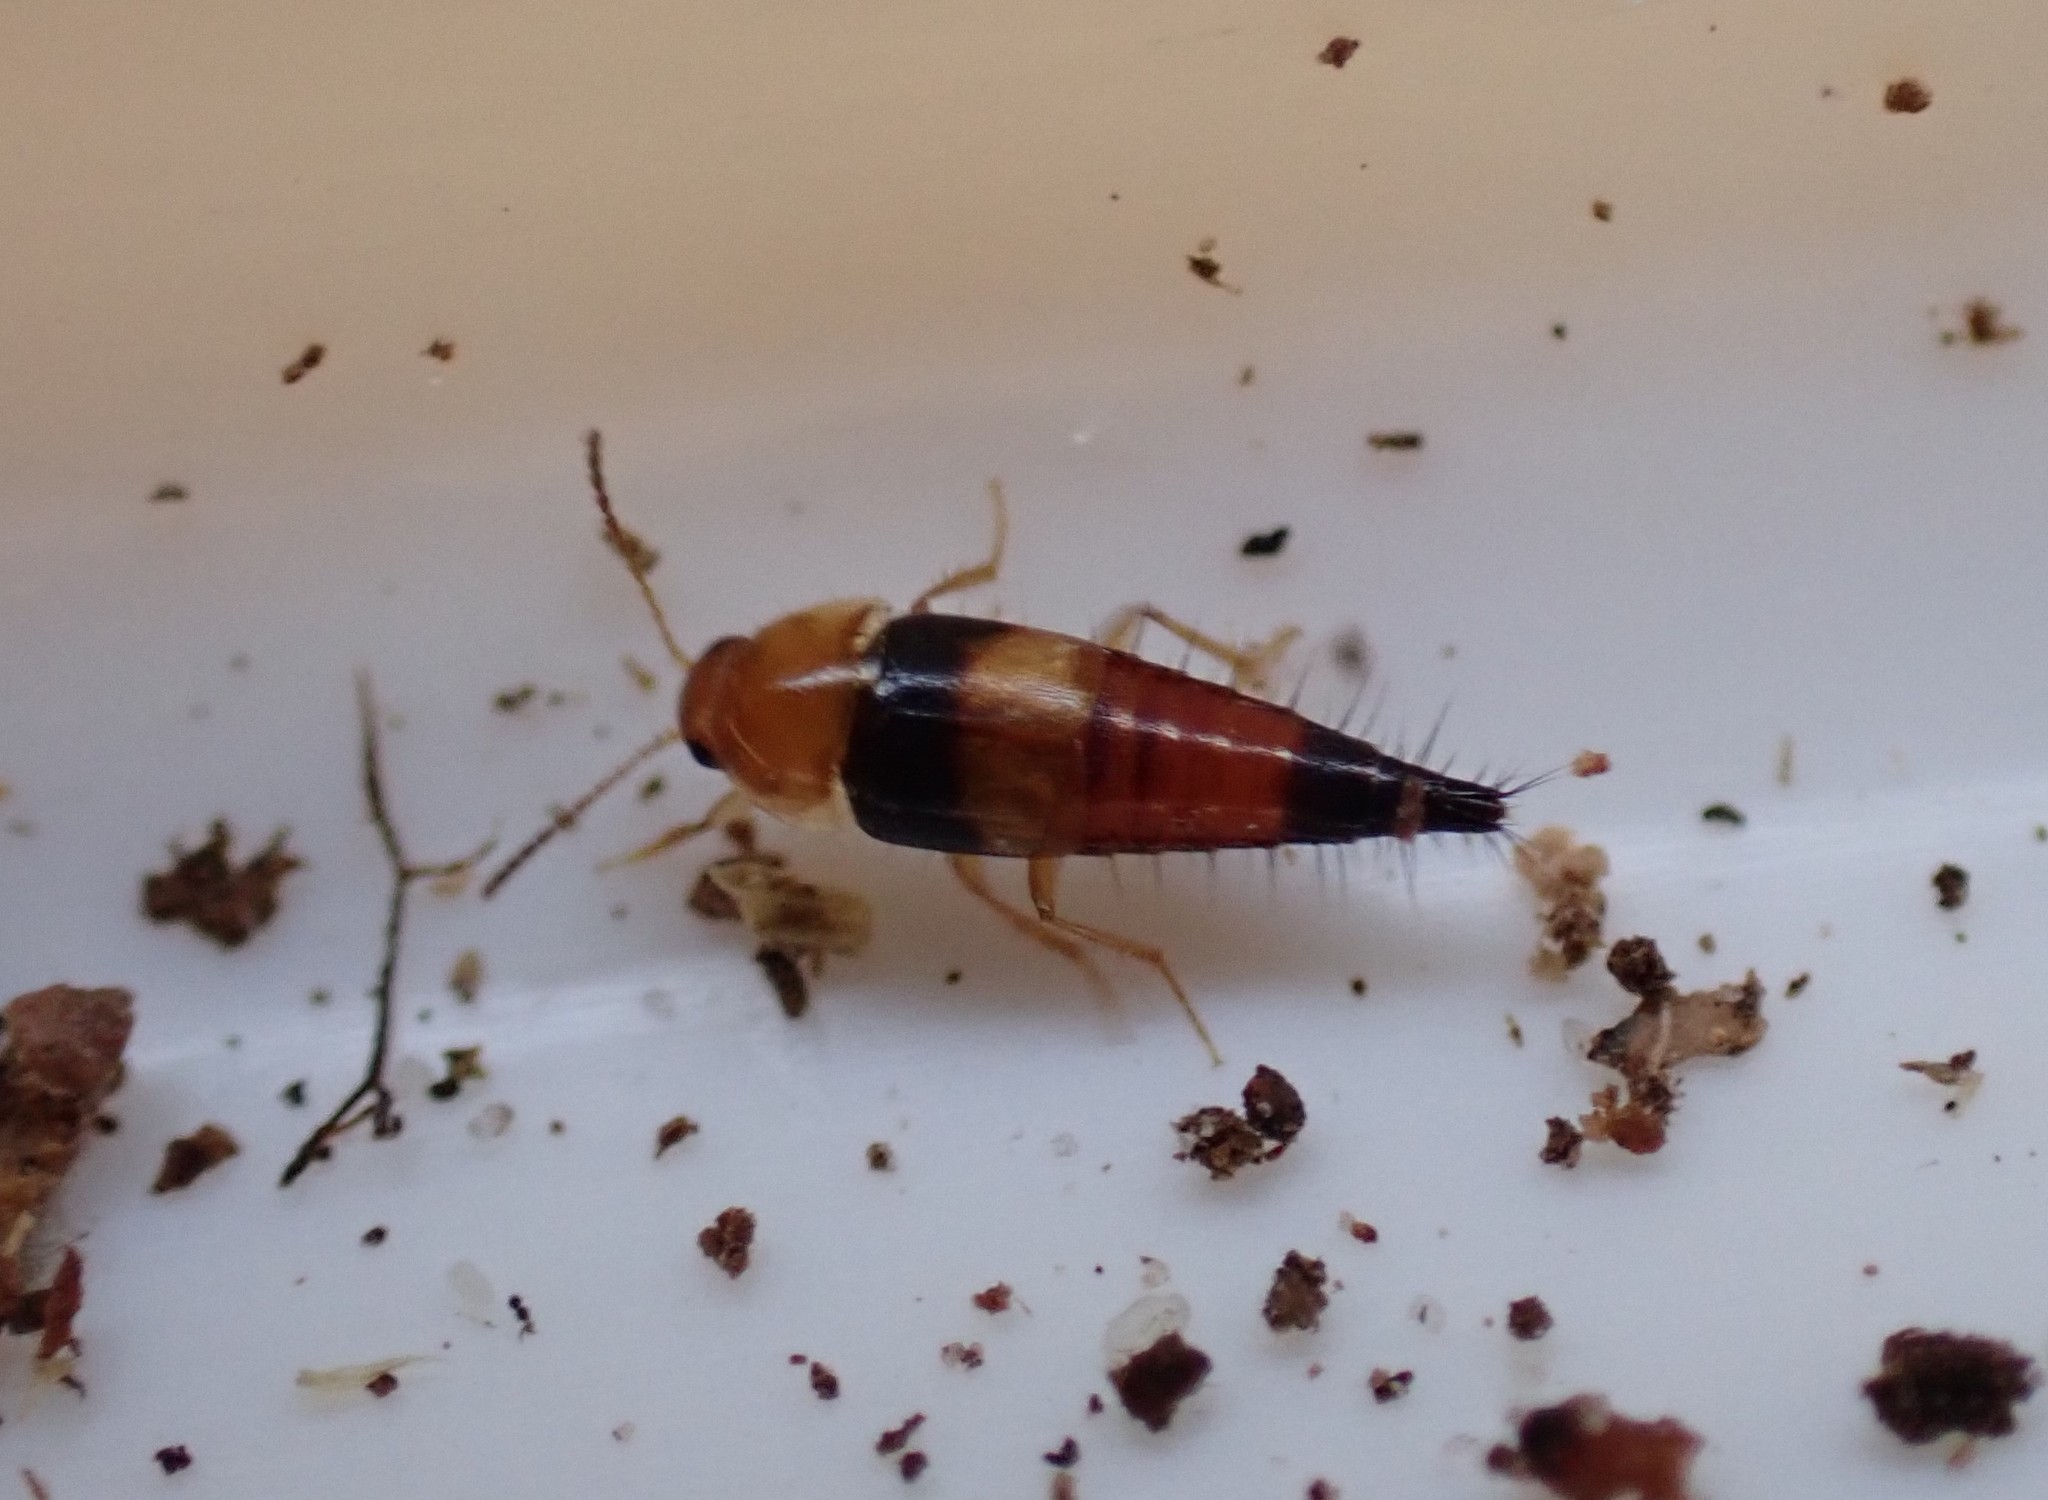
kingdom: Animalia
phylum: Arthropoda
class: Insecta
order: Coleoptera
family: Staphylinidae
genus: Tachyporus
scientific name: Tachyporus obtusus
